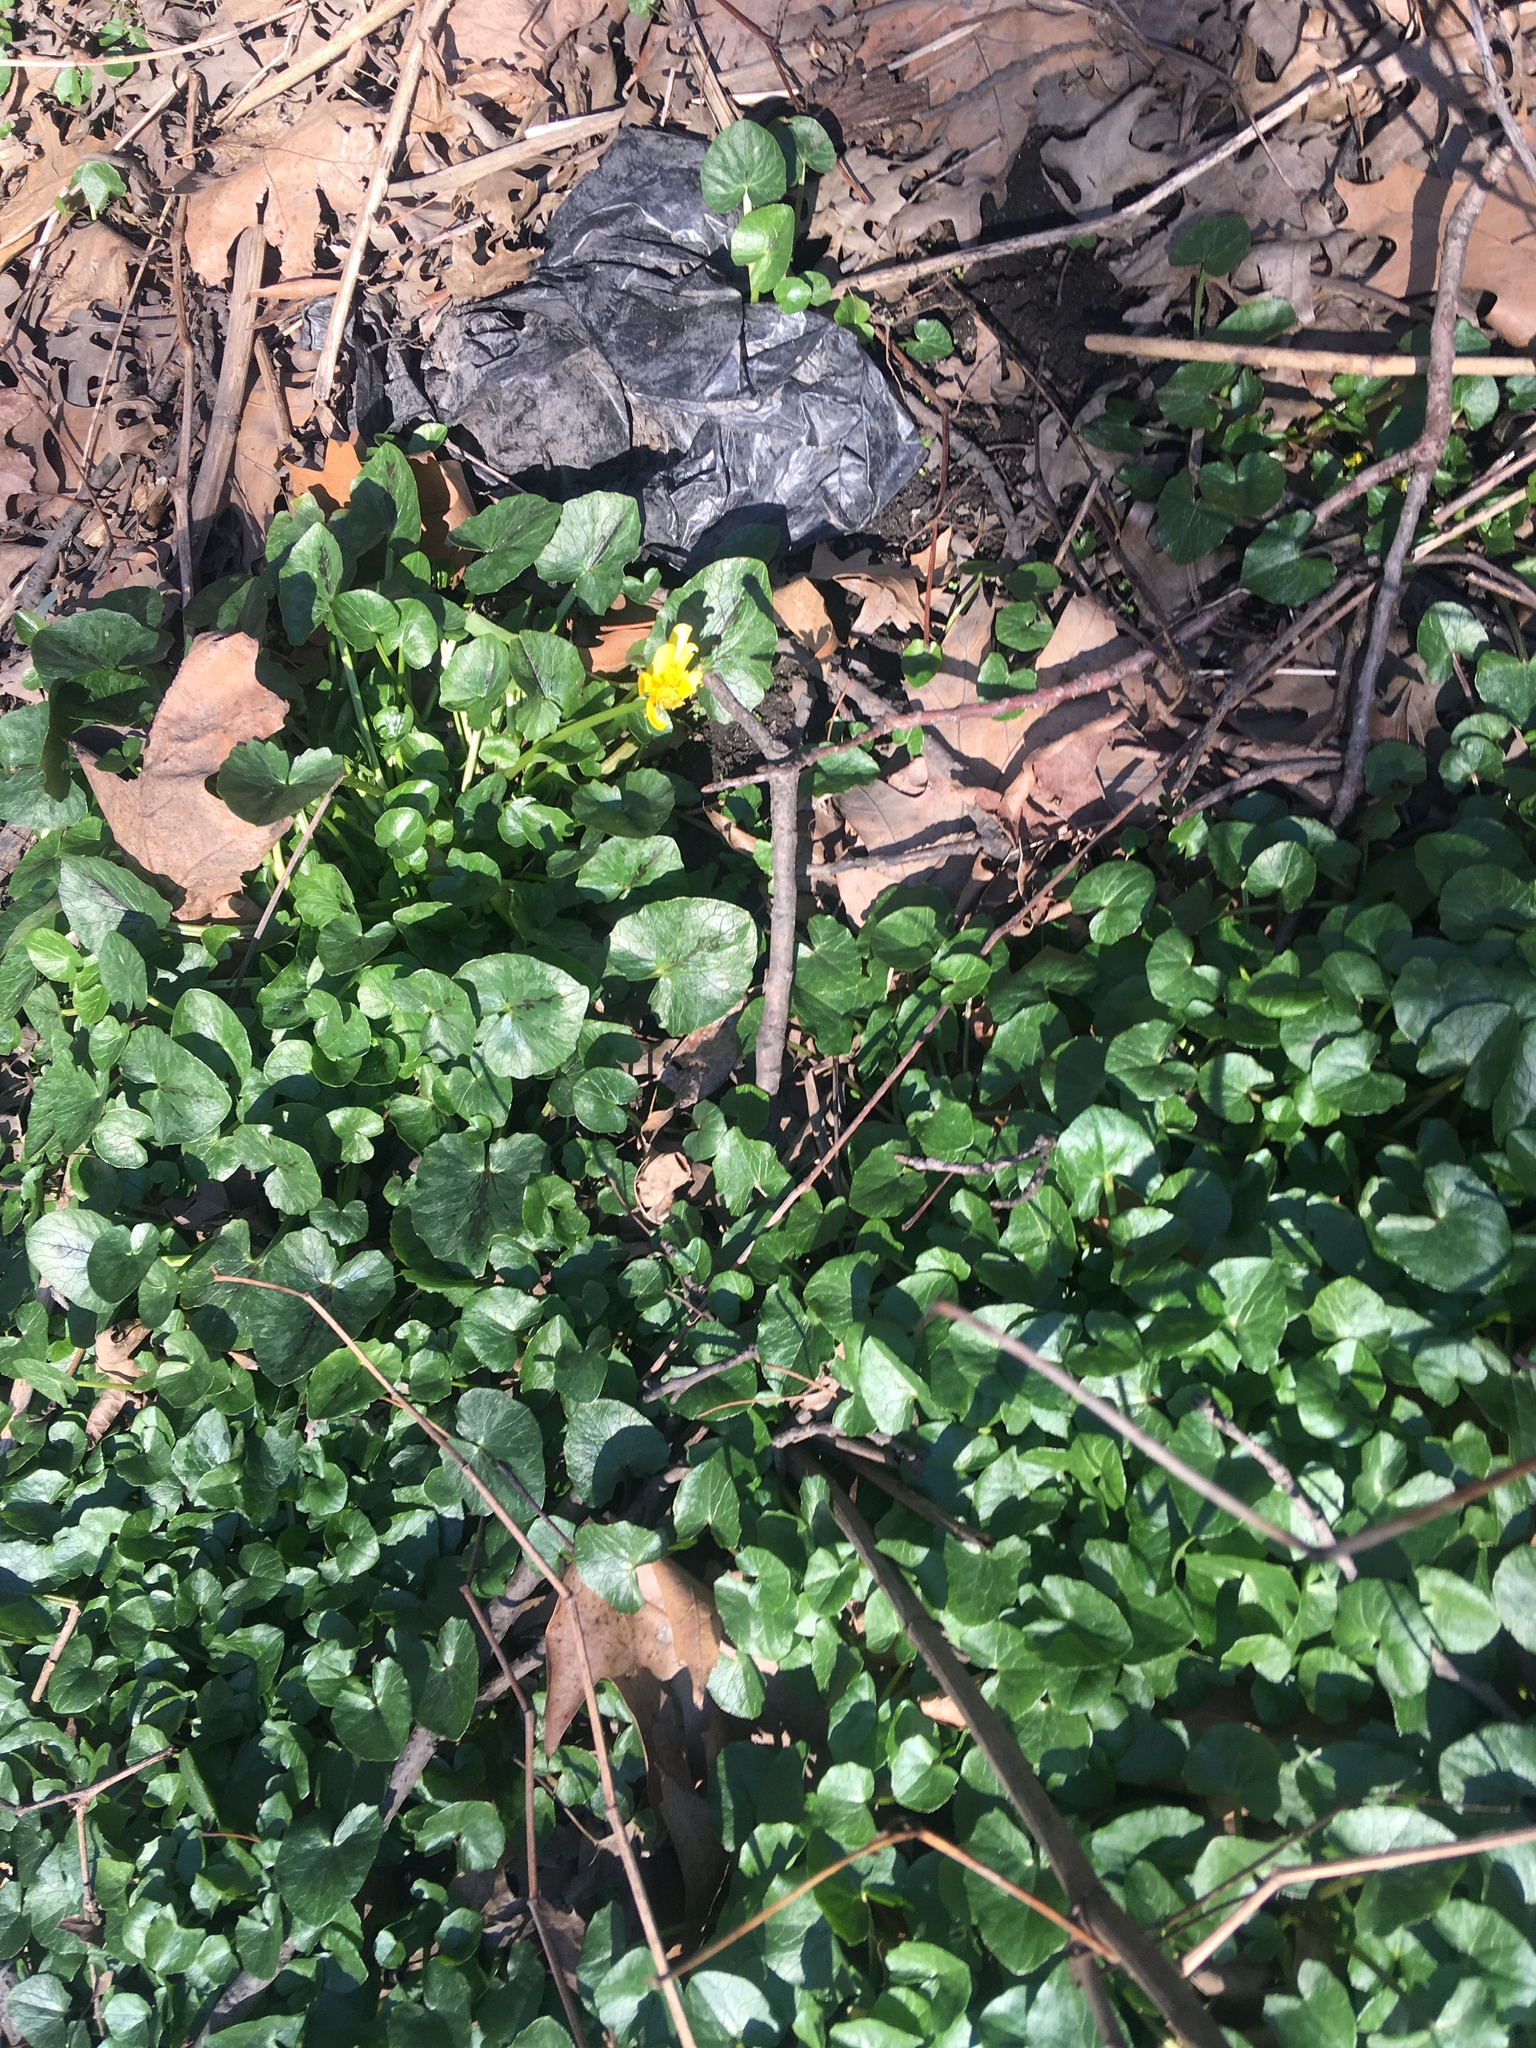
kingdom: Plantae
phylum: Tracheophyta
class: Magnoliopsida
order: Ranunculales
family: Ranunculaceae
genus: Ficaria
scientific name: Ficaria verna
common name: Lesser celandine
